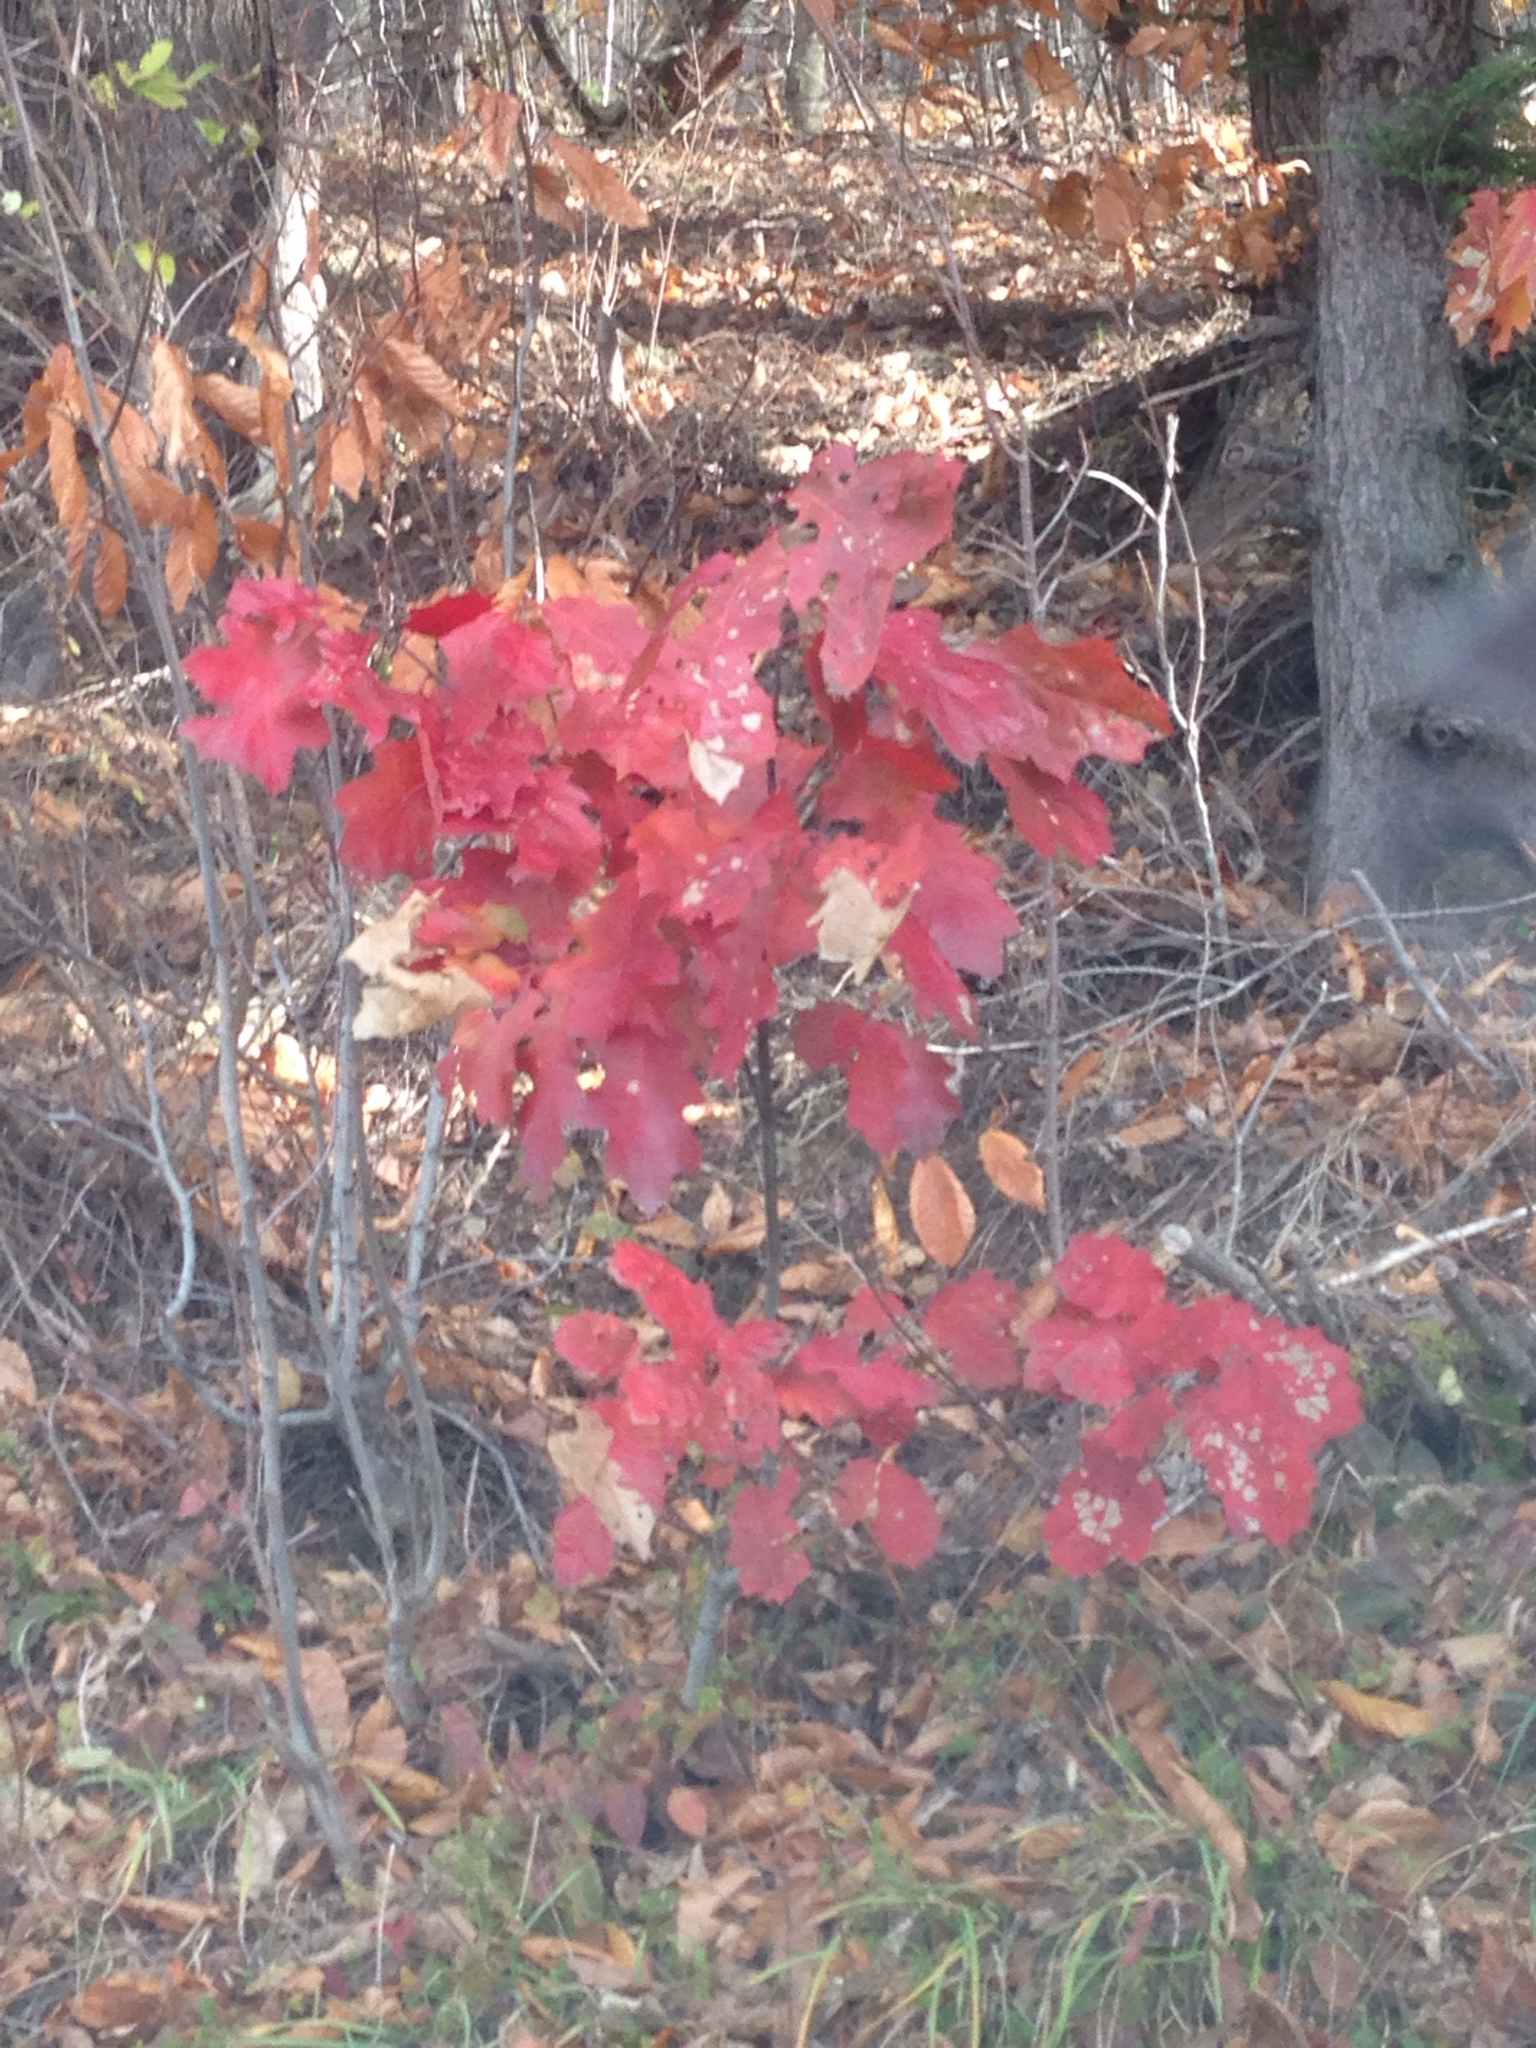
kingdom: Plantae
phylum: Tracheophyta
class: Magnoliopsida
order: Fagales
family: Fagaceae
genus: Quercus
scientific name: Quercus rubra
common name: Red oak
